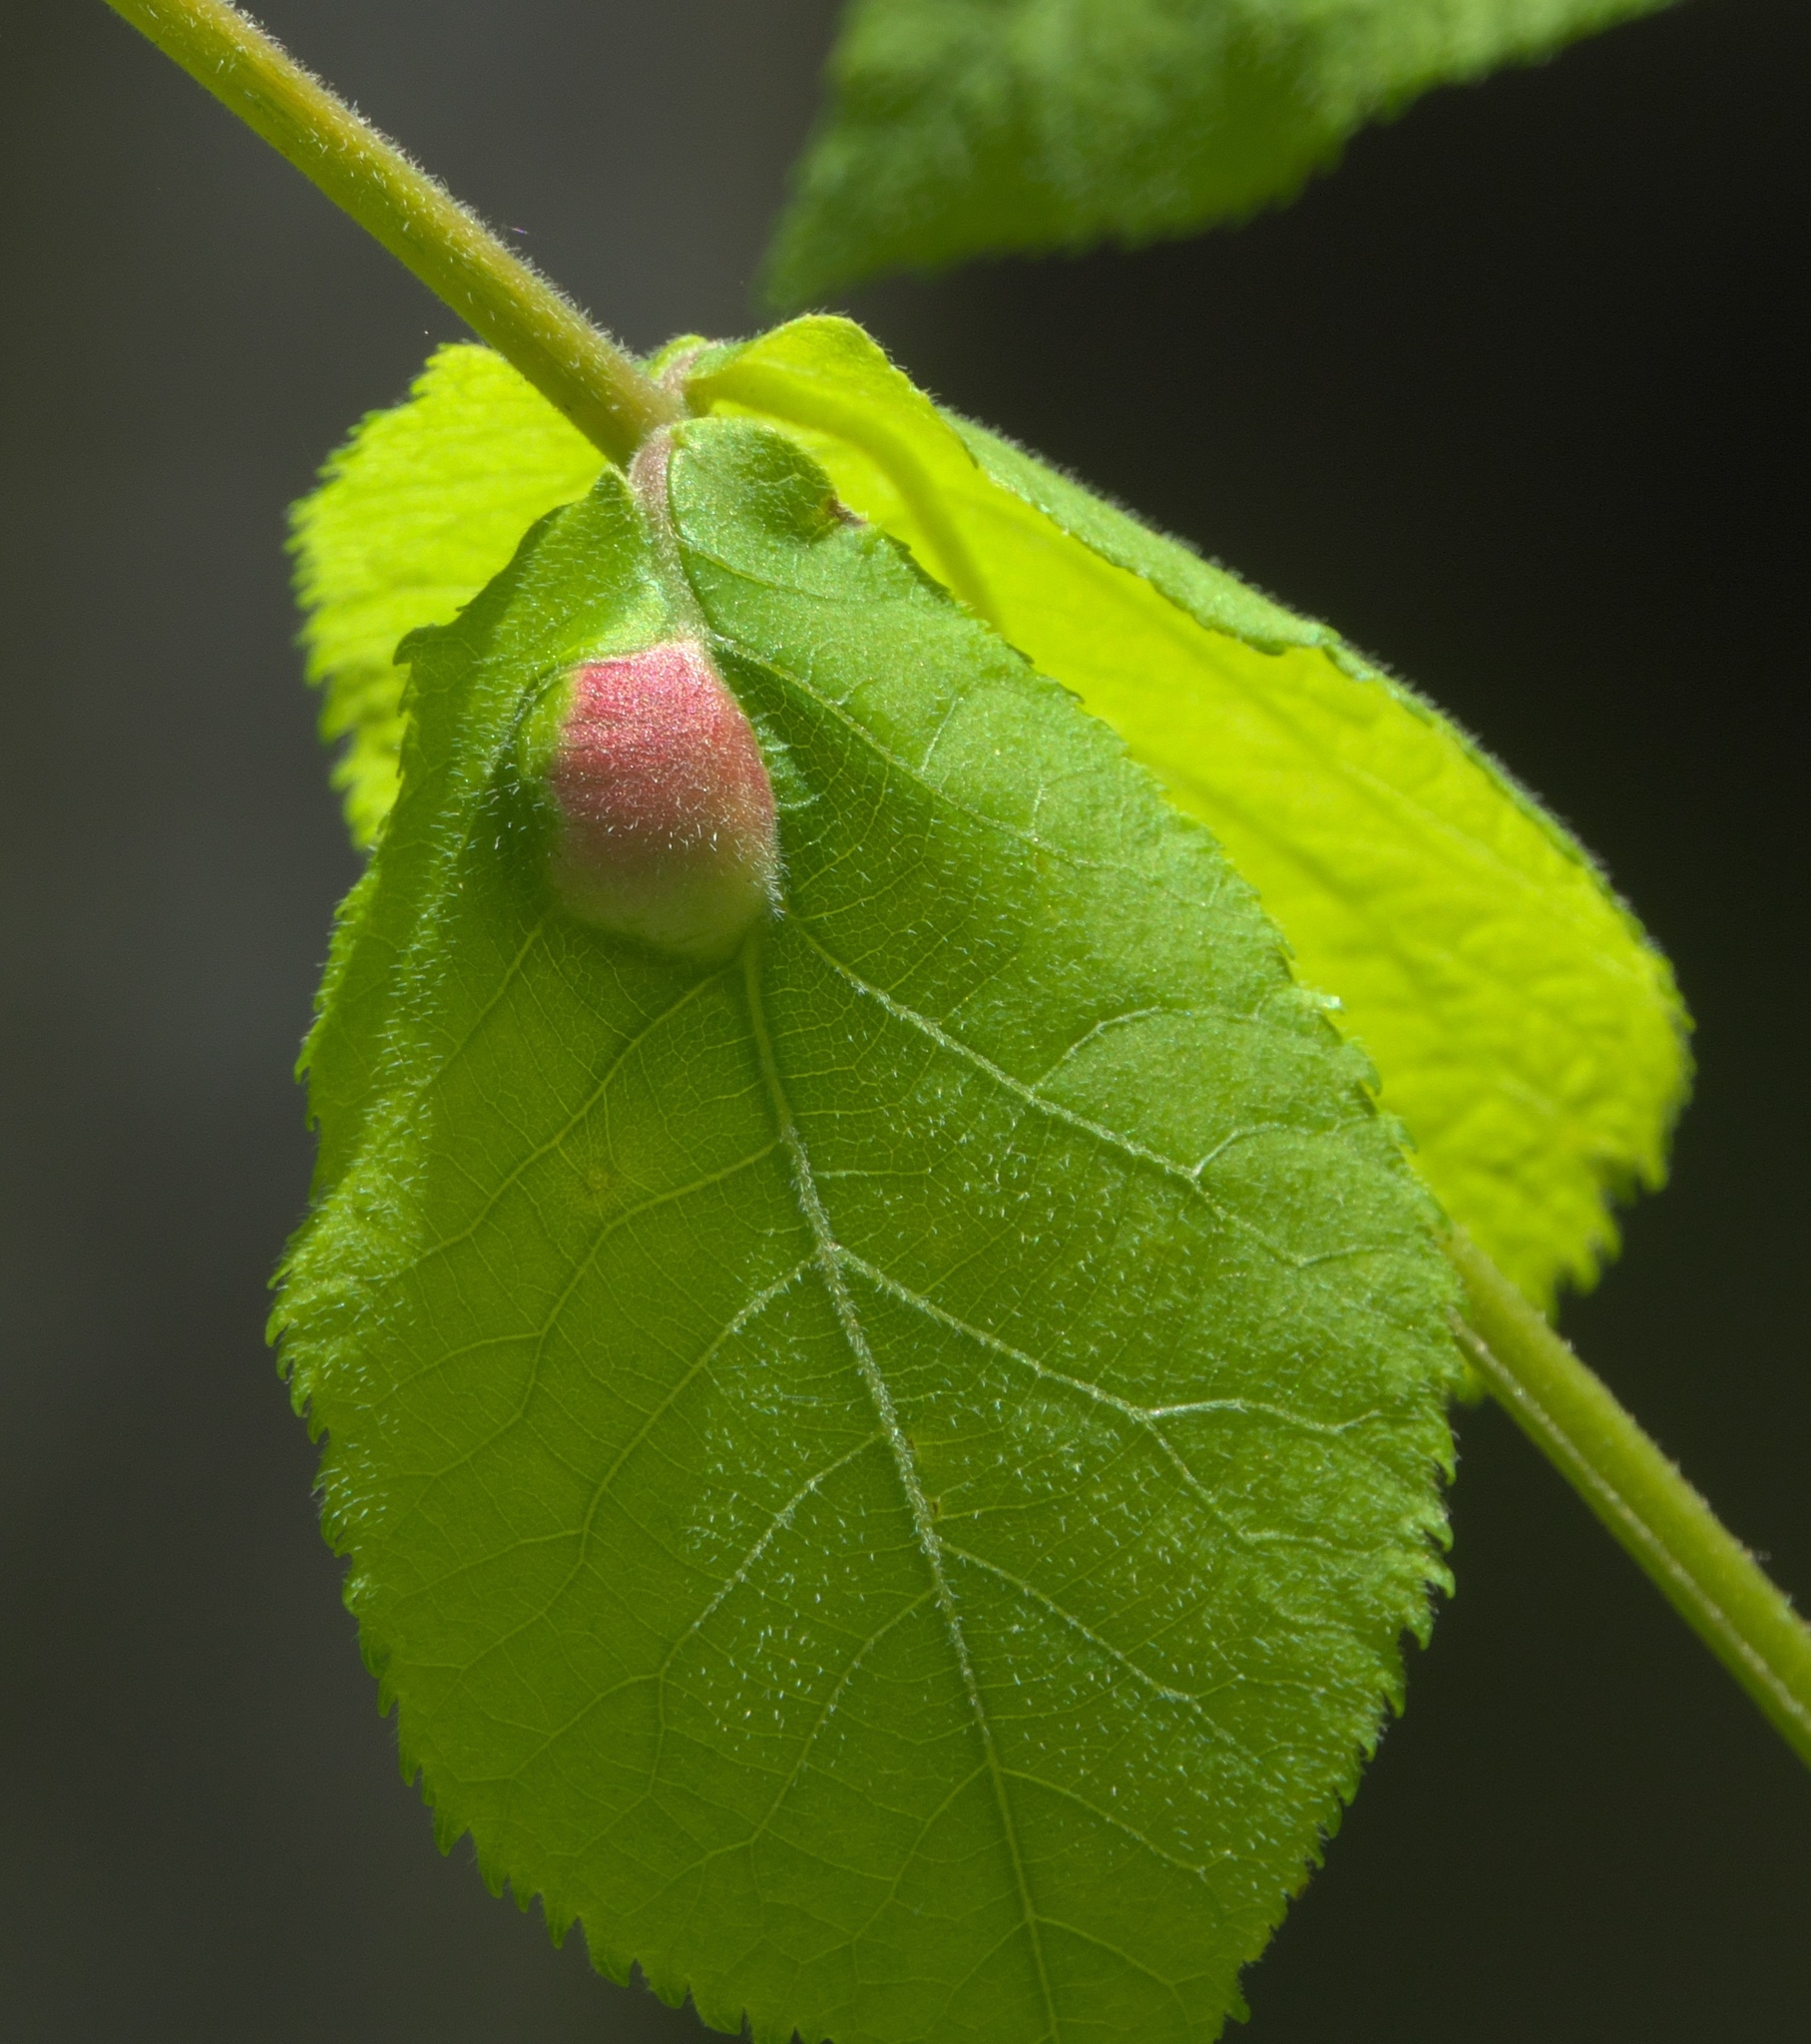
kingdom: Animalia
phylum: Arthropoda
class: Insecta
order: Hemiptera
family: Phylloxeridae
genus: Phylloxera
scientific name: Phylloxera
